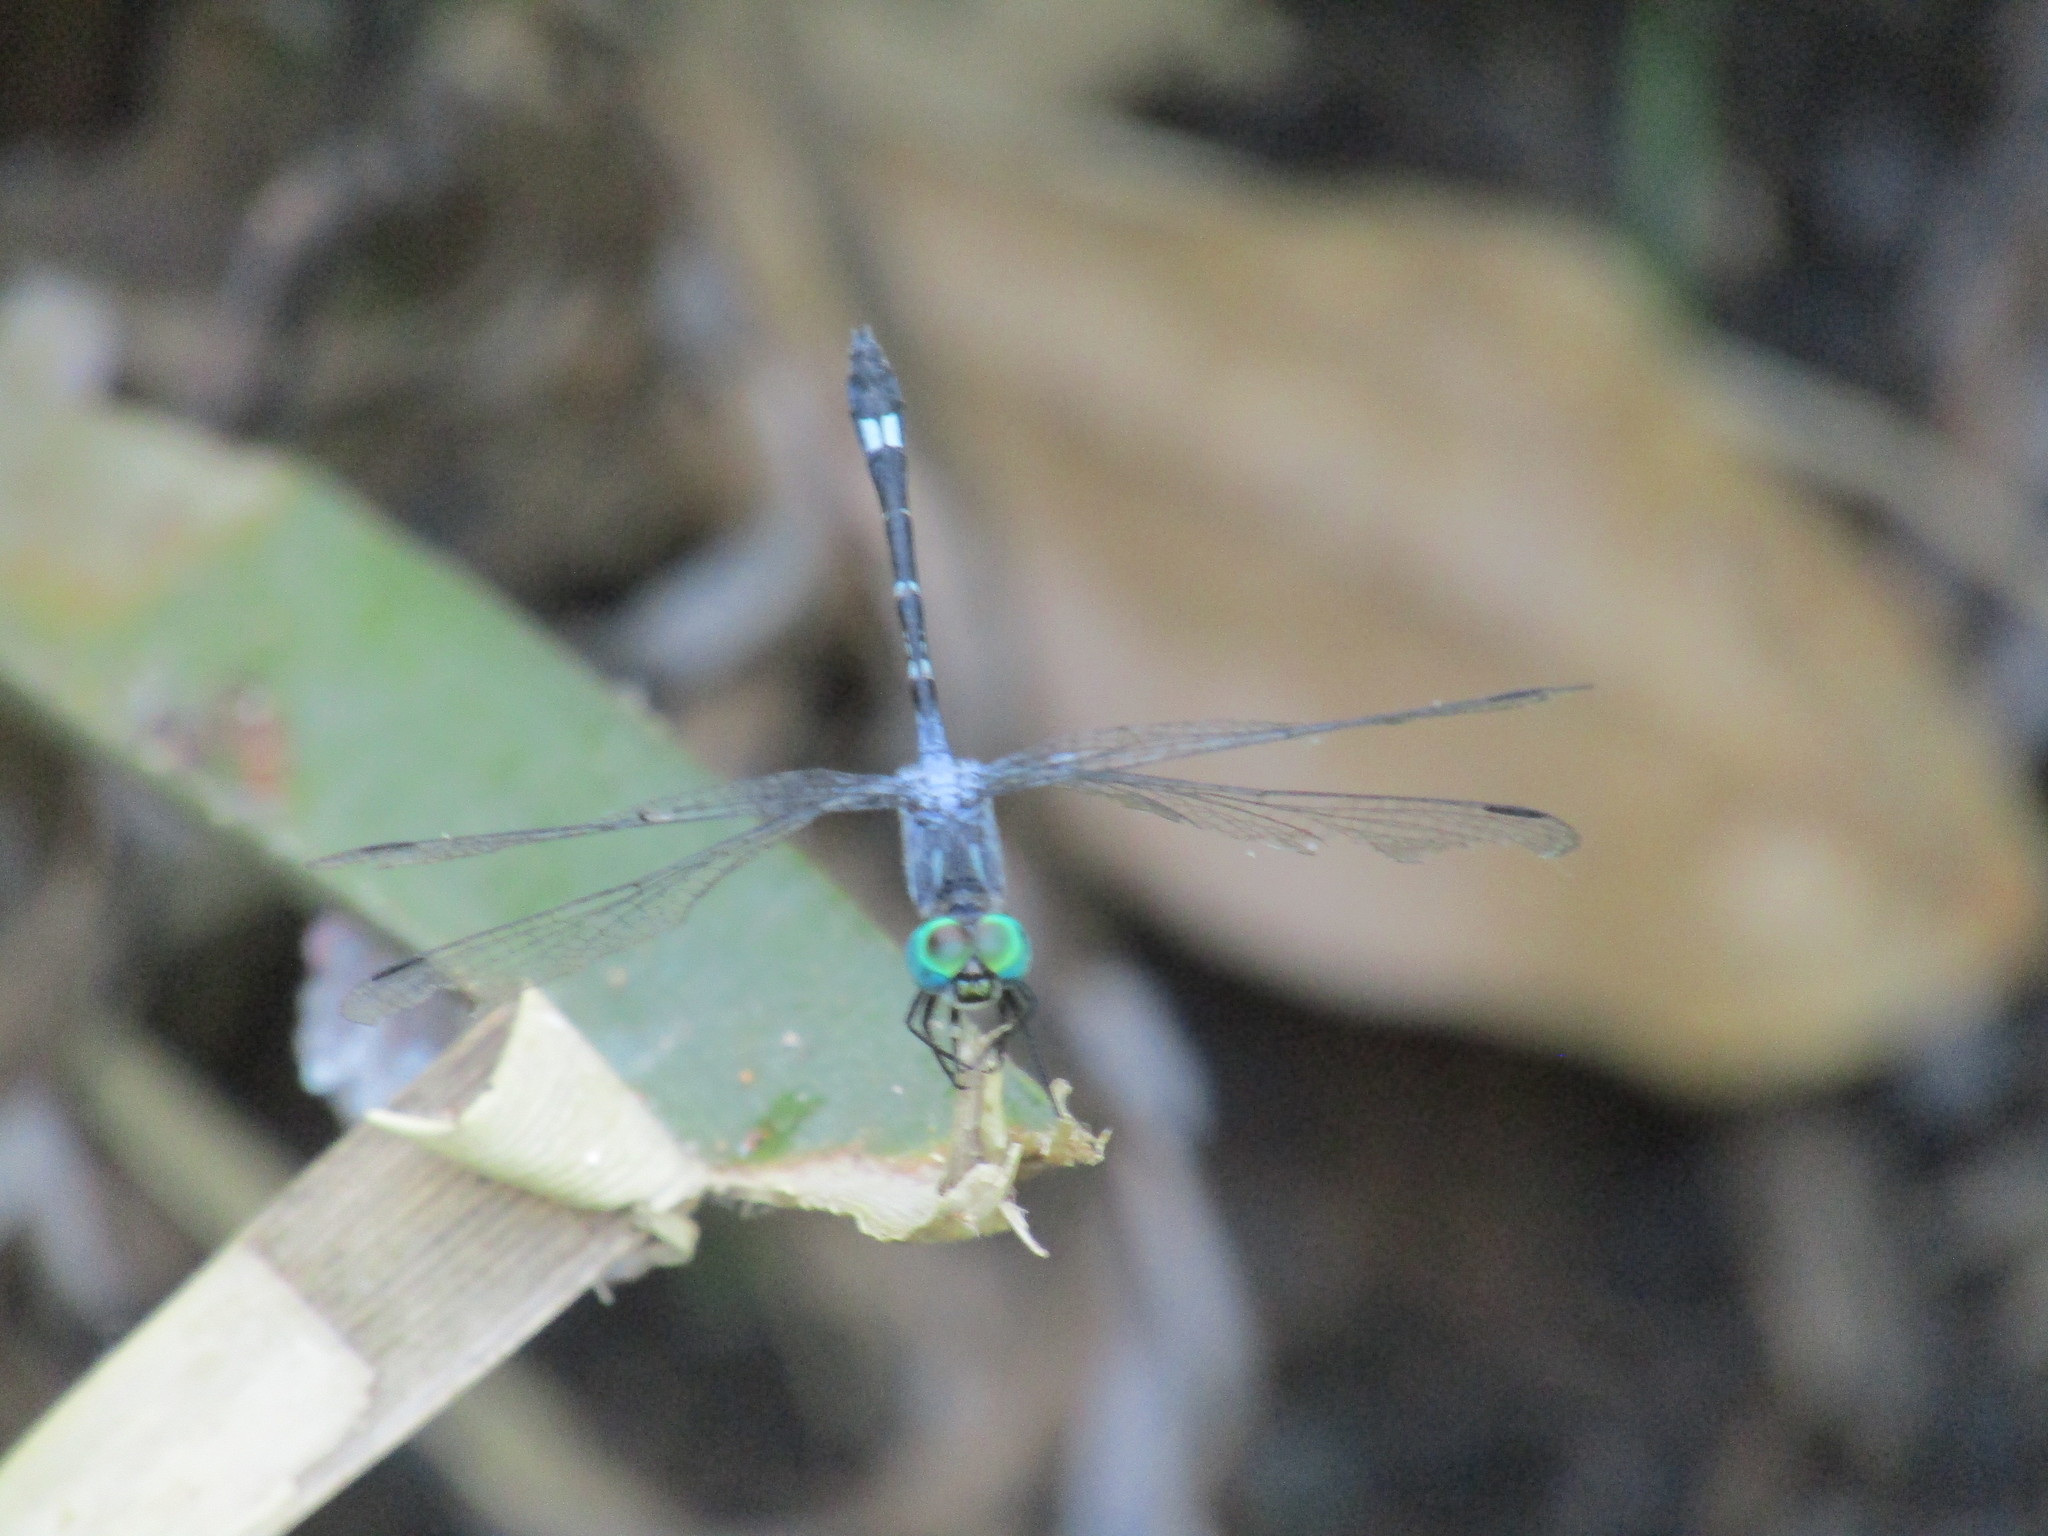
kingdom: Animalia
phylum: Arthropoda
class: Insecta
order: Odonata
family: Libellulidae
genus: Micrathyria
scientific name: Micrathyria hypodidyma
